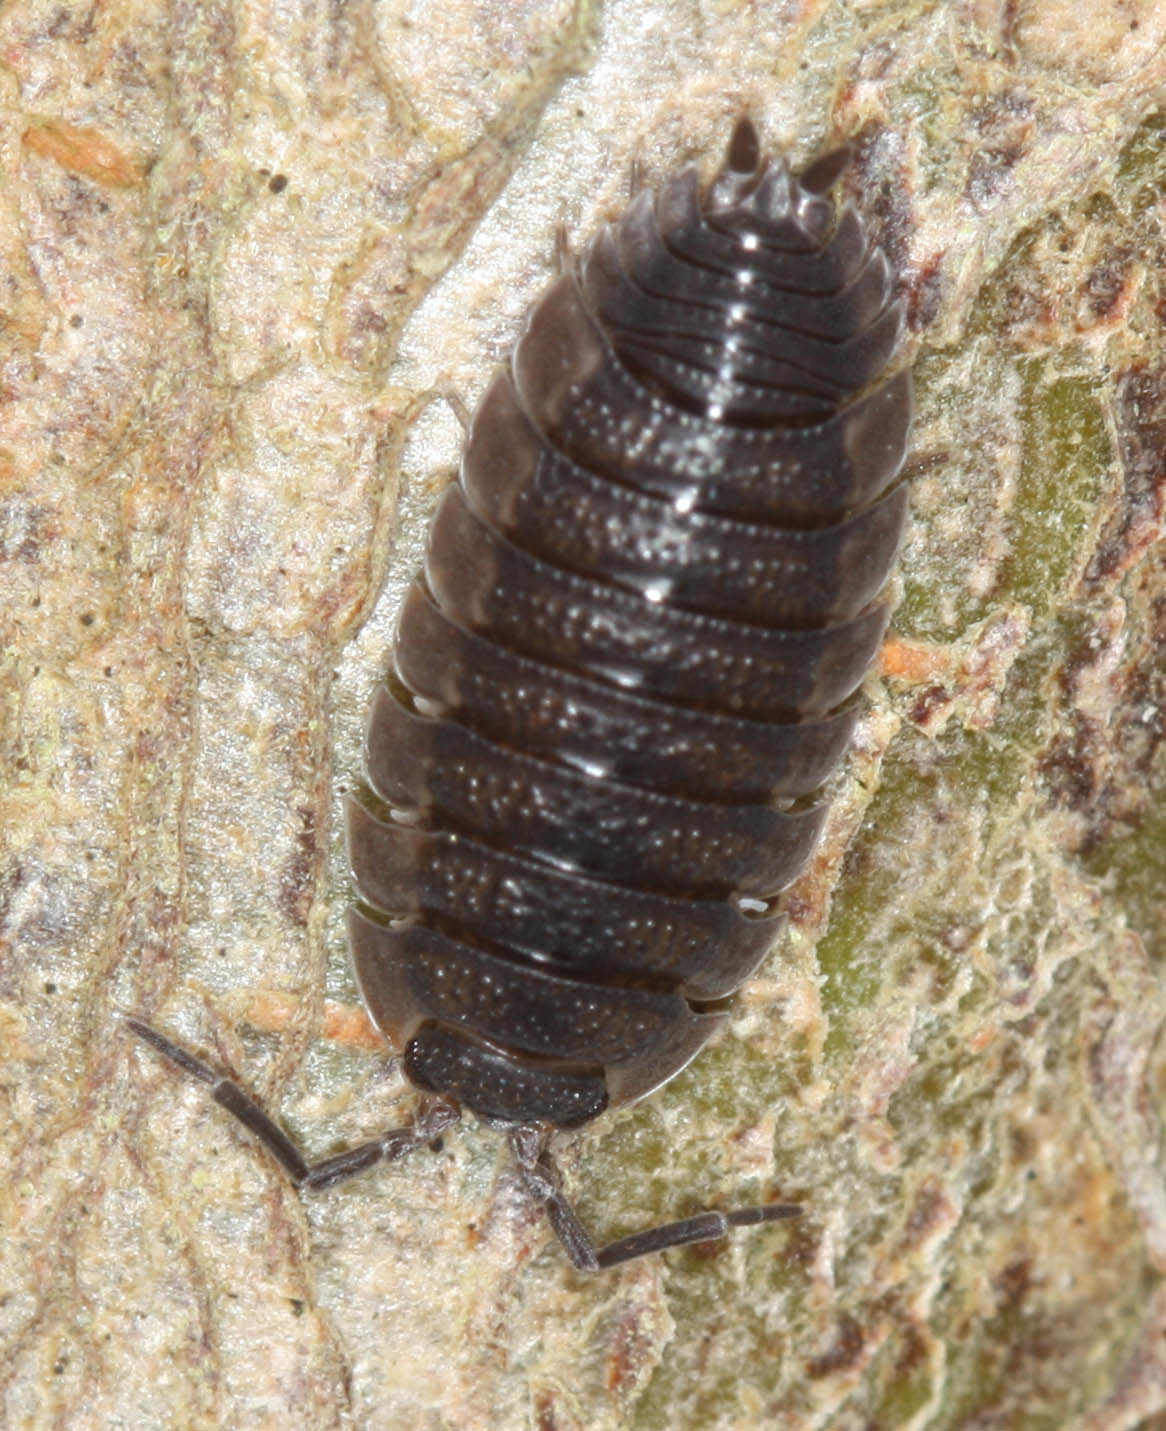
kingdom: Animalia
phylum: Arthropoda
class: Malacostraca
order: Isopoda
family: Porcellionidae
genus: Porcellio
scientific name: Porcellio scaber
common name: Common rough woodlouse
